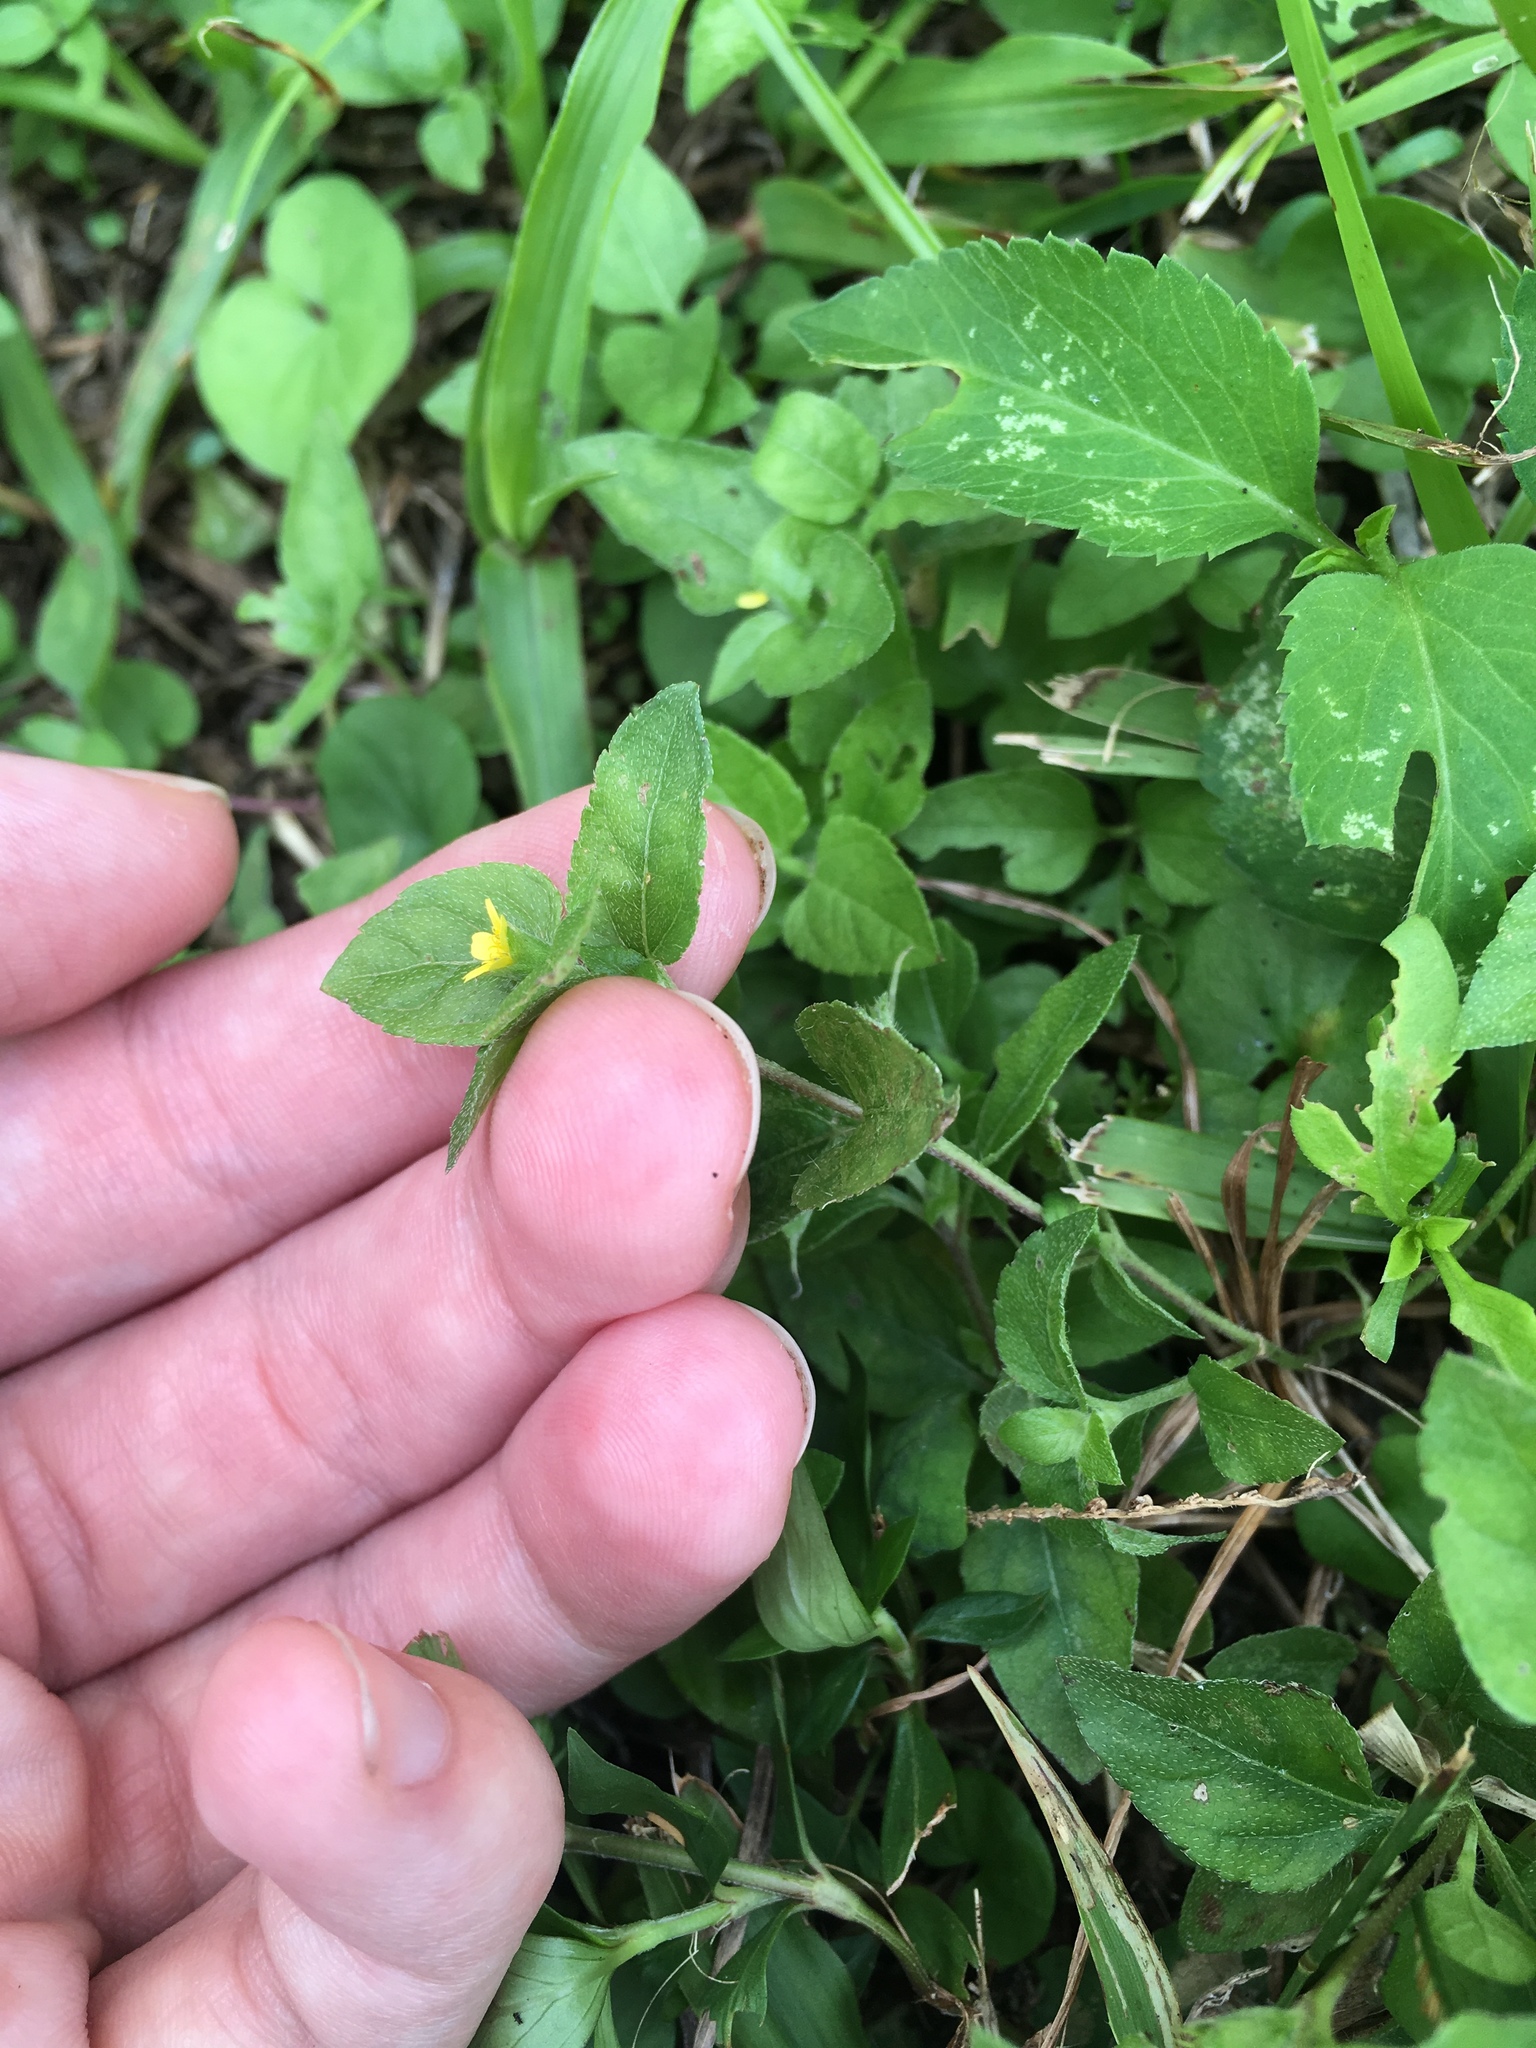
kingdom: Plantae
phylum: Tracheophyta
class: Magnoliopsida
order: Asterales
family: Asteraceae
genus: Calyptocarpus
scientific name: Calyptocarpus vialis
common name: Straggler daisy
